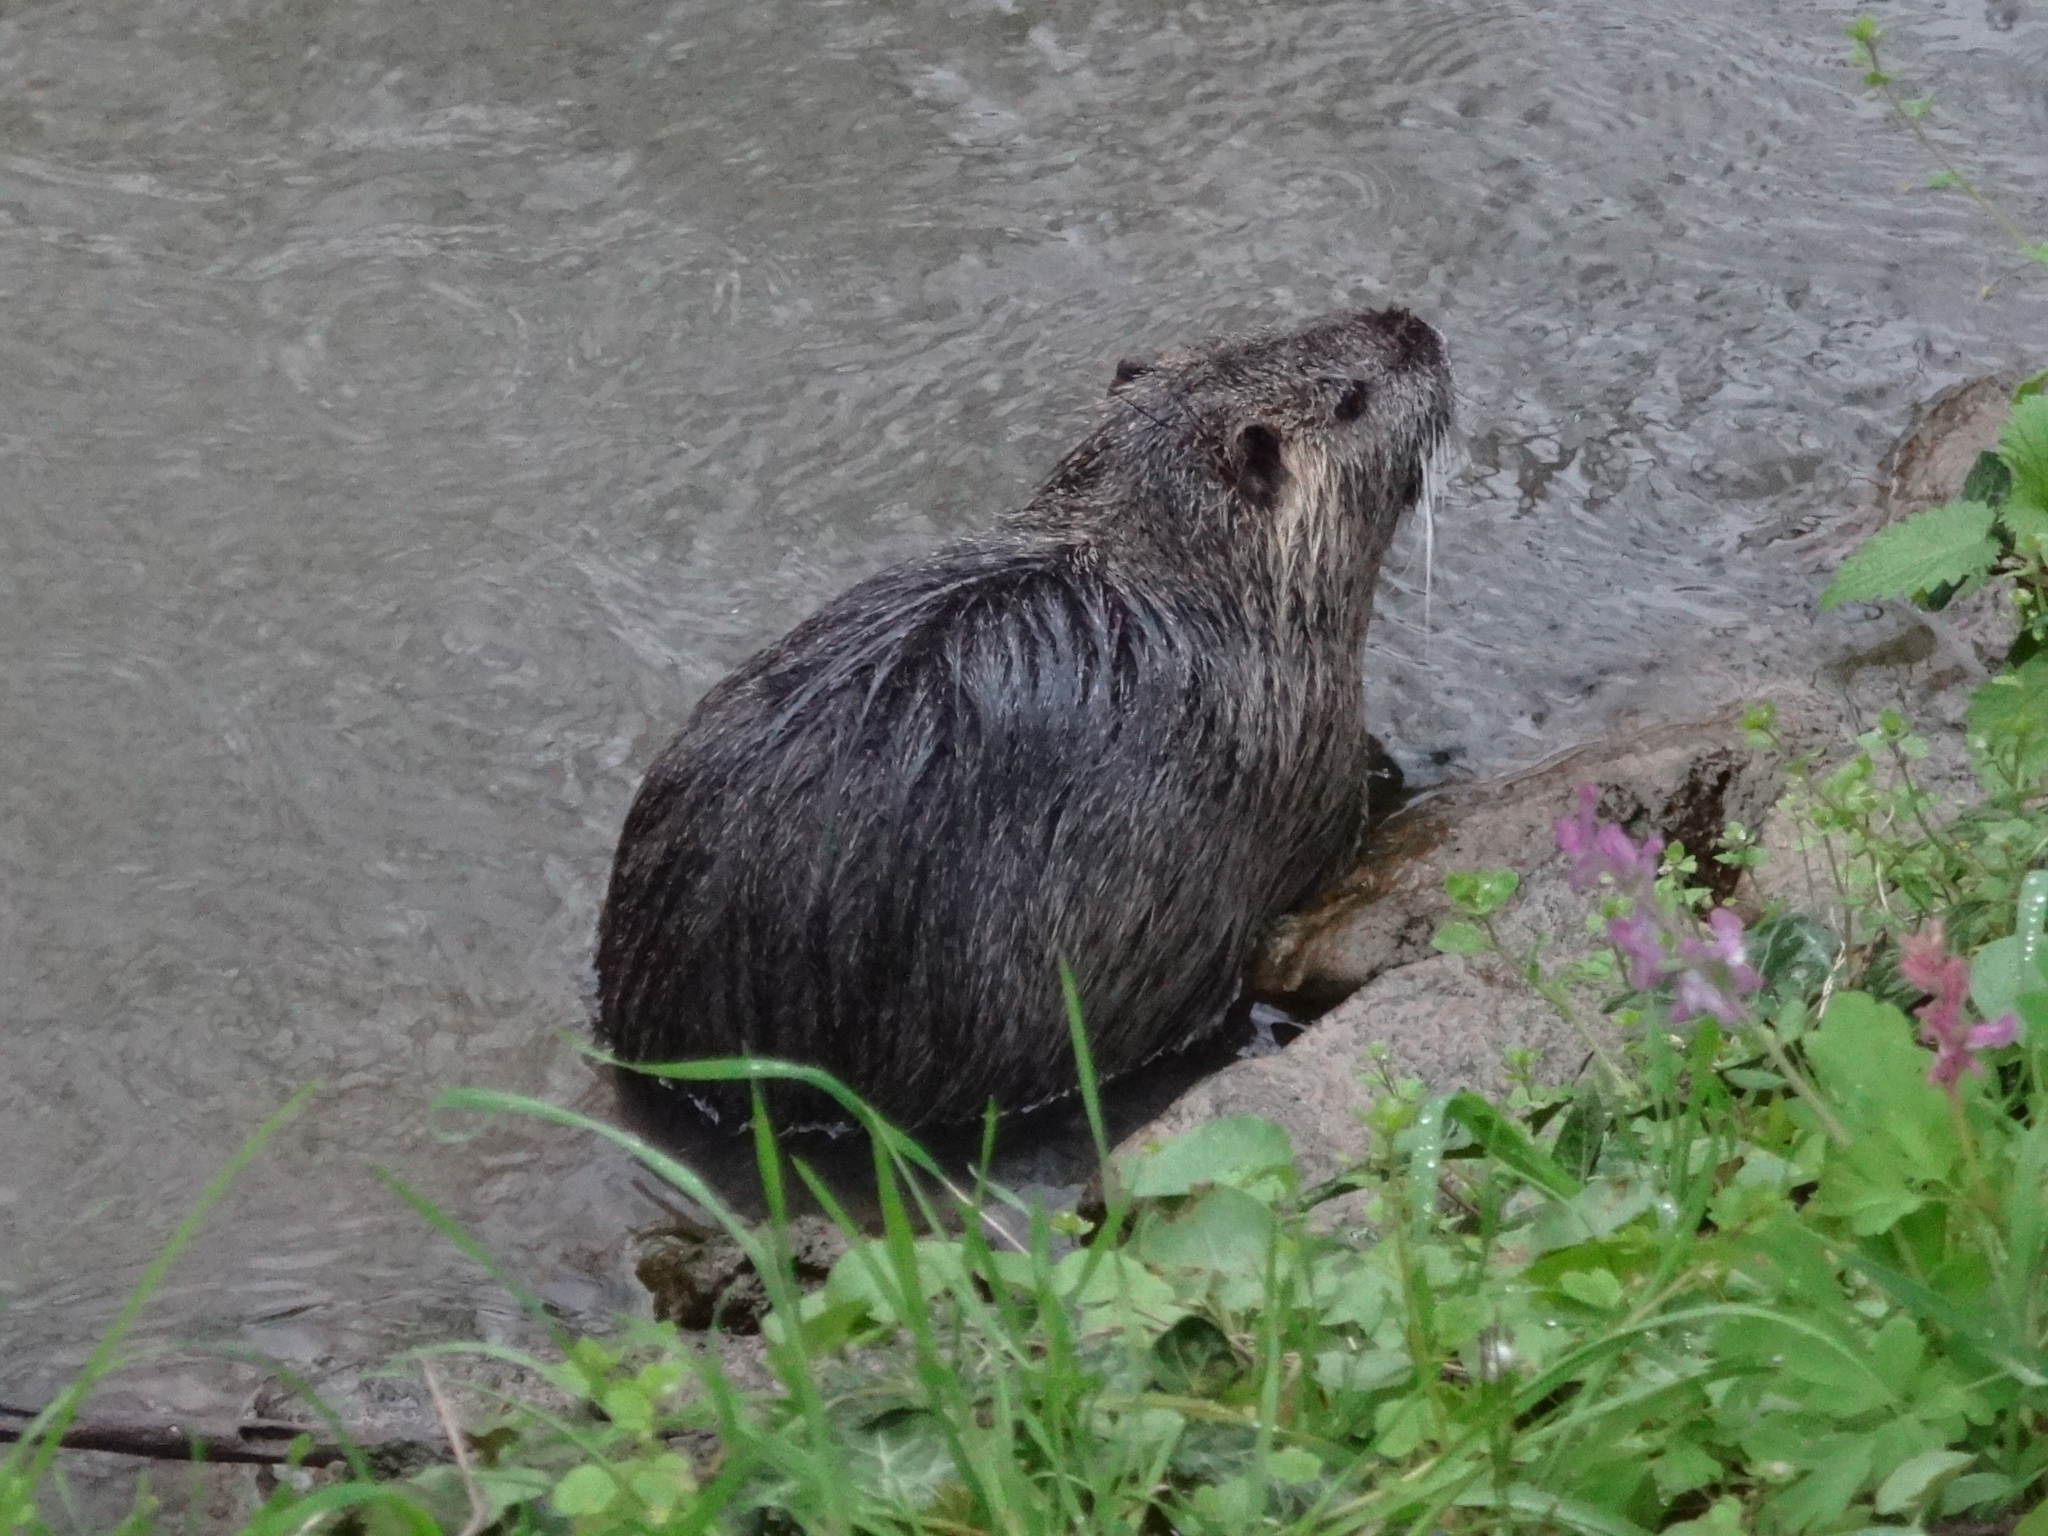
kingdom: Animalia
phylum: Chordata
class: Mammalia
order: Rodentia
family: Myocastoridae
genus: Myocastor
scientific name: Myocastor coypus
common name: Coypu
